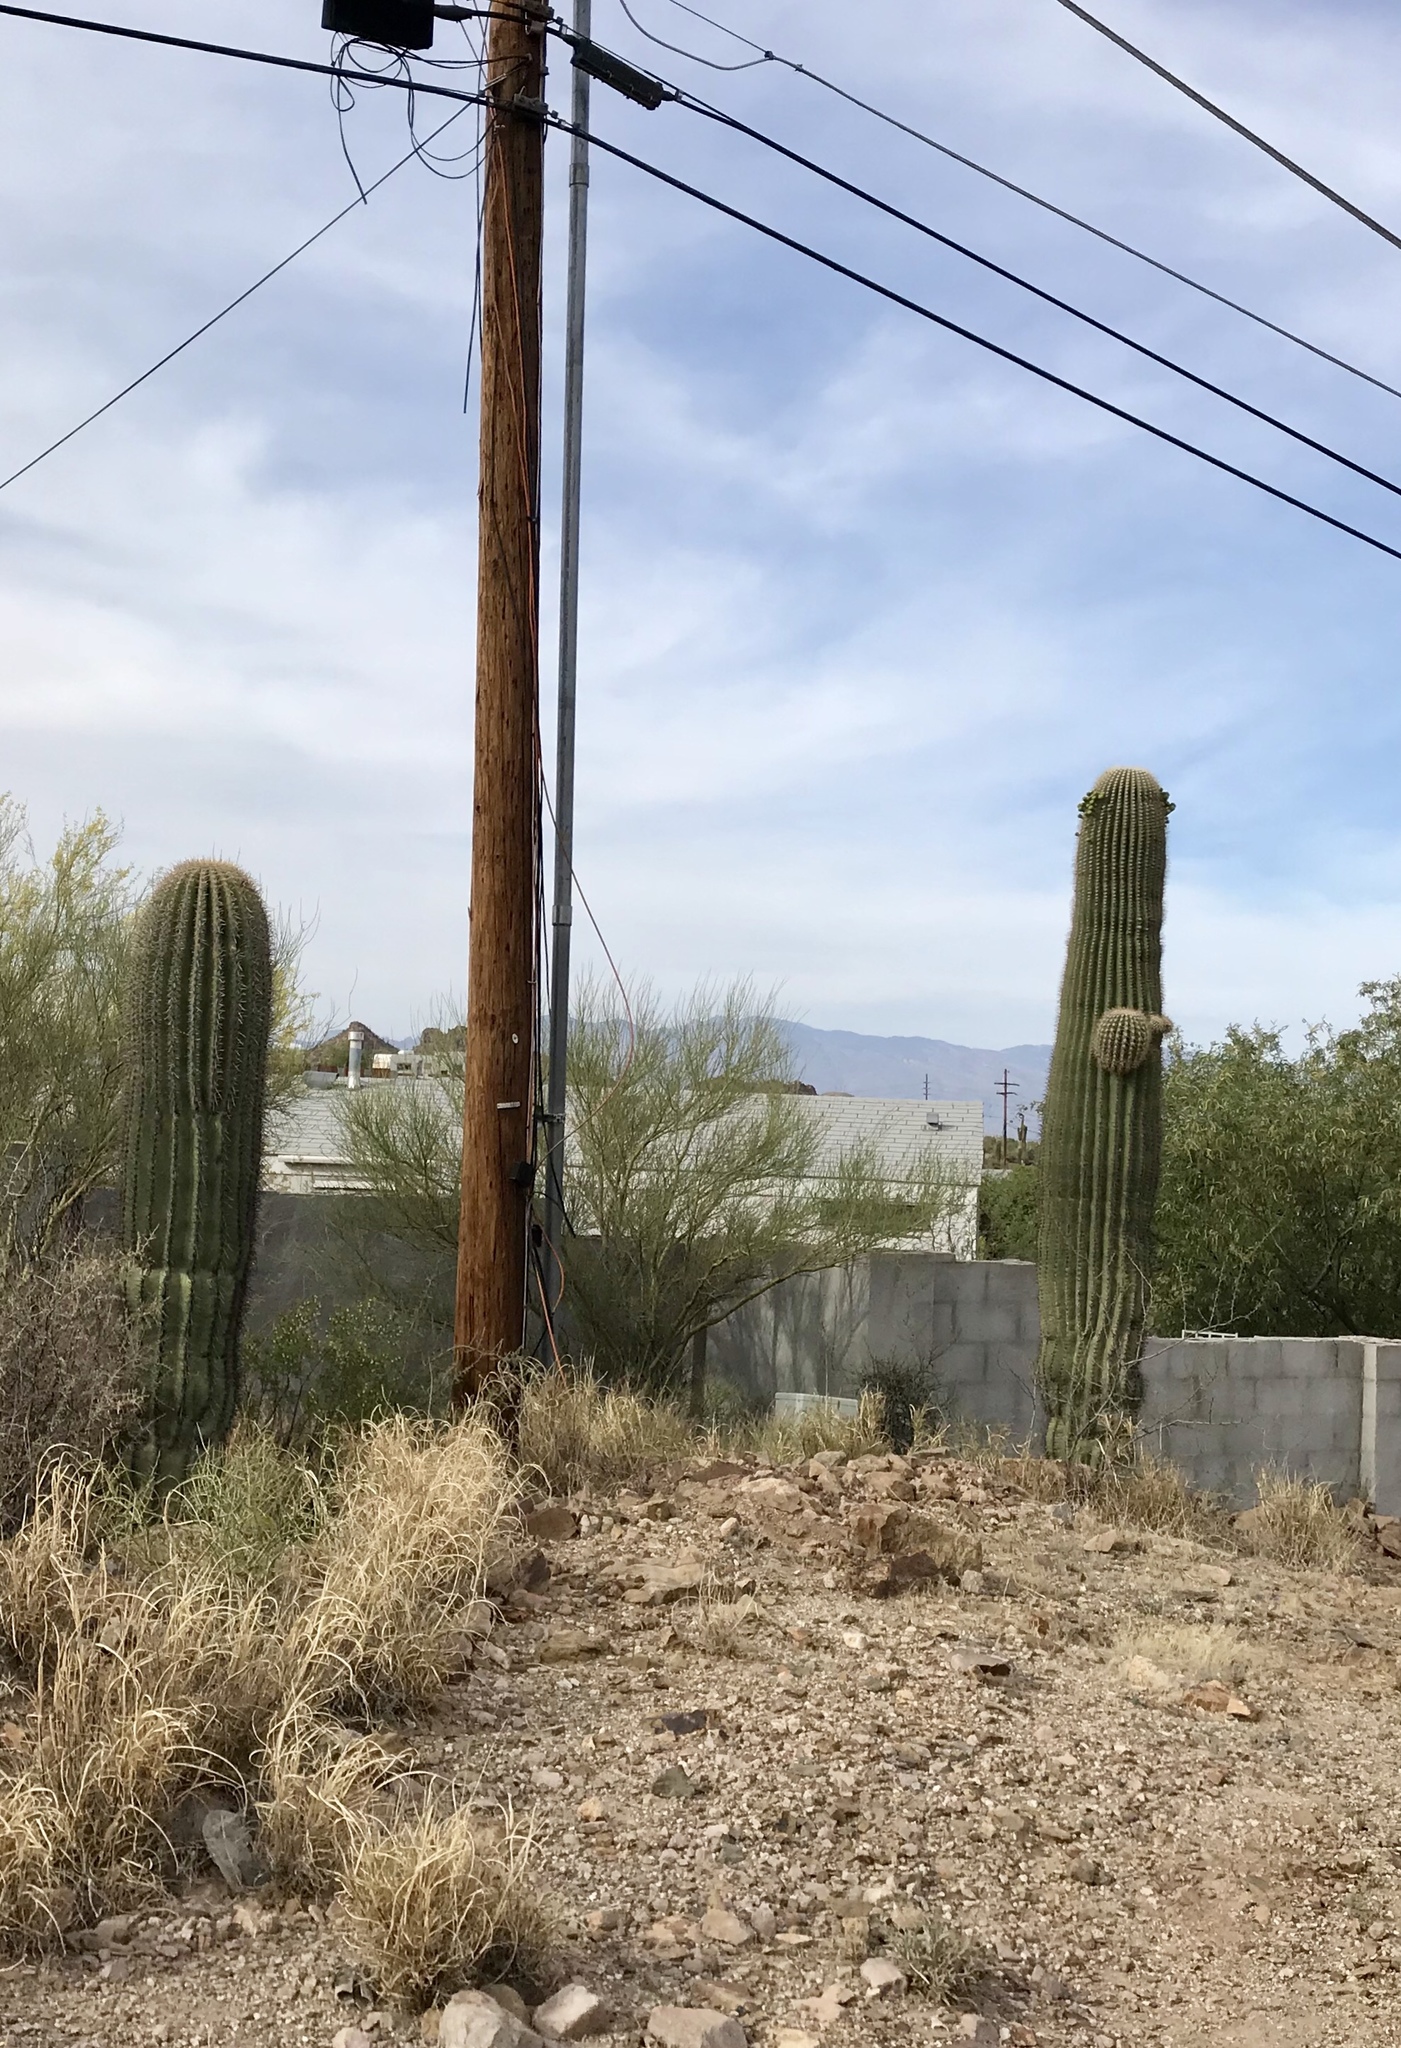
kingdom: Plantae
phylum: Tracheophyta
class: Magnoliopsida
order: Caryophyllales
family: Cactaceae
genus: Carnegiea
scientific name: Carnegiea gigantea
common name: Saguaro
